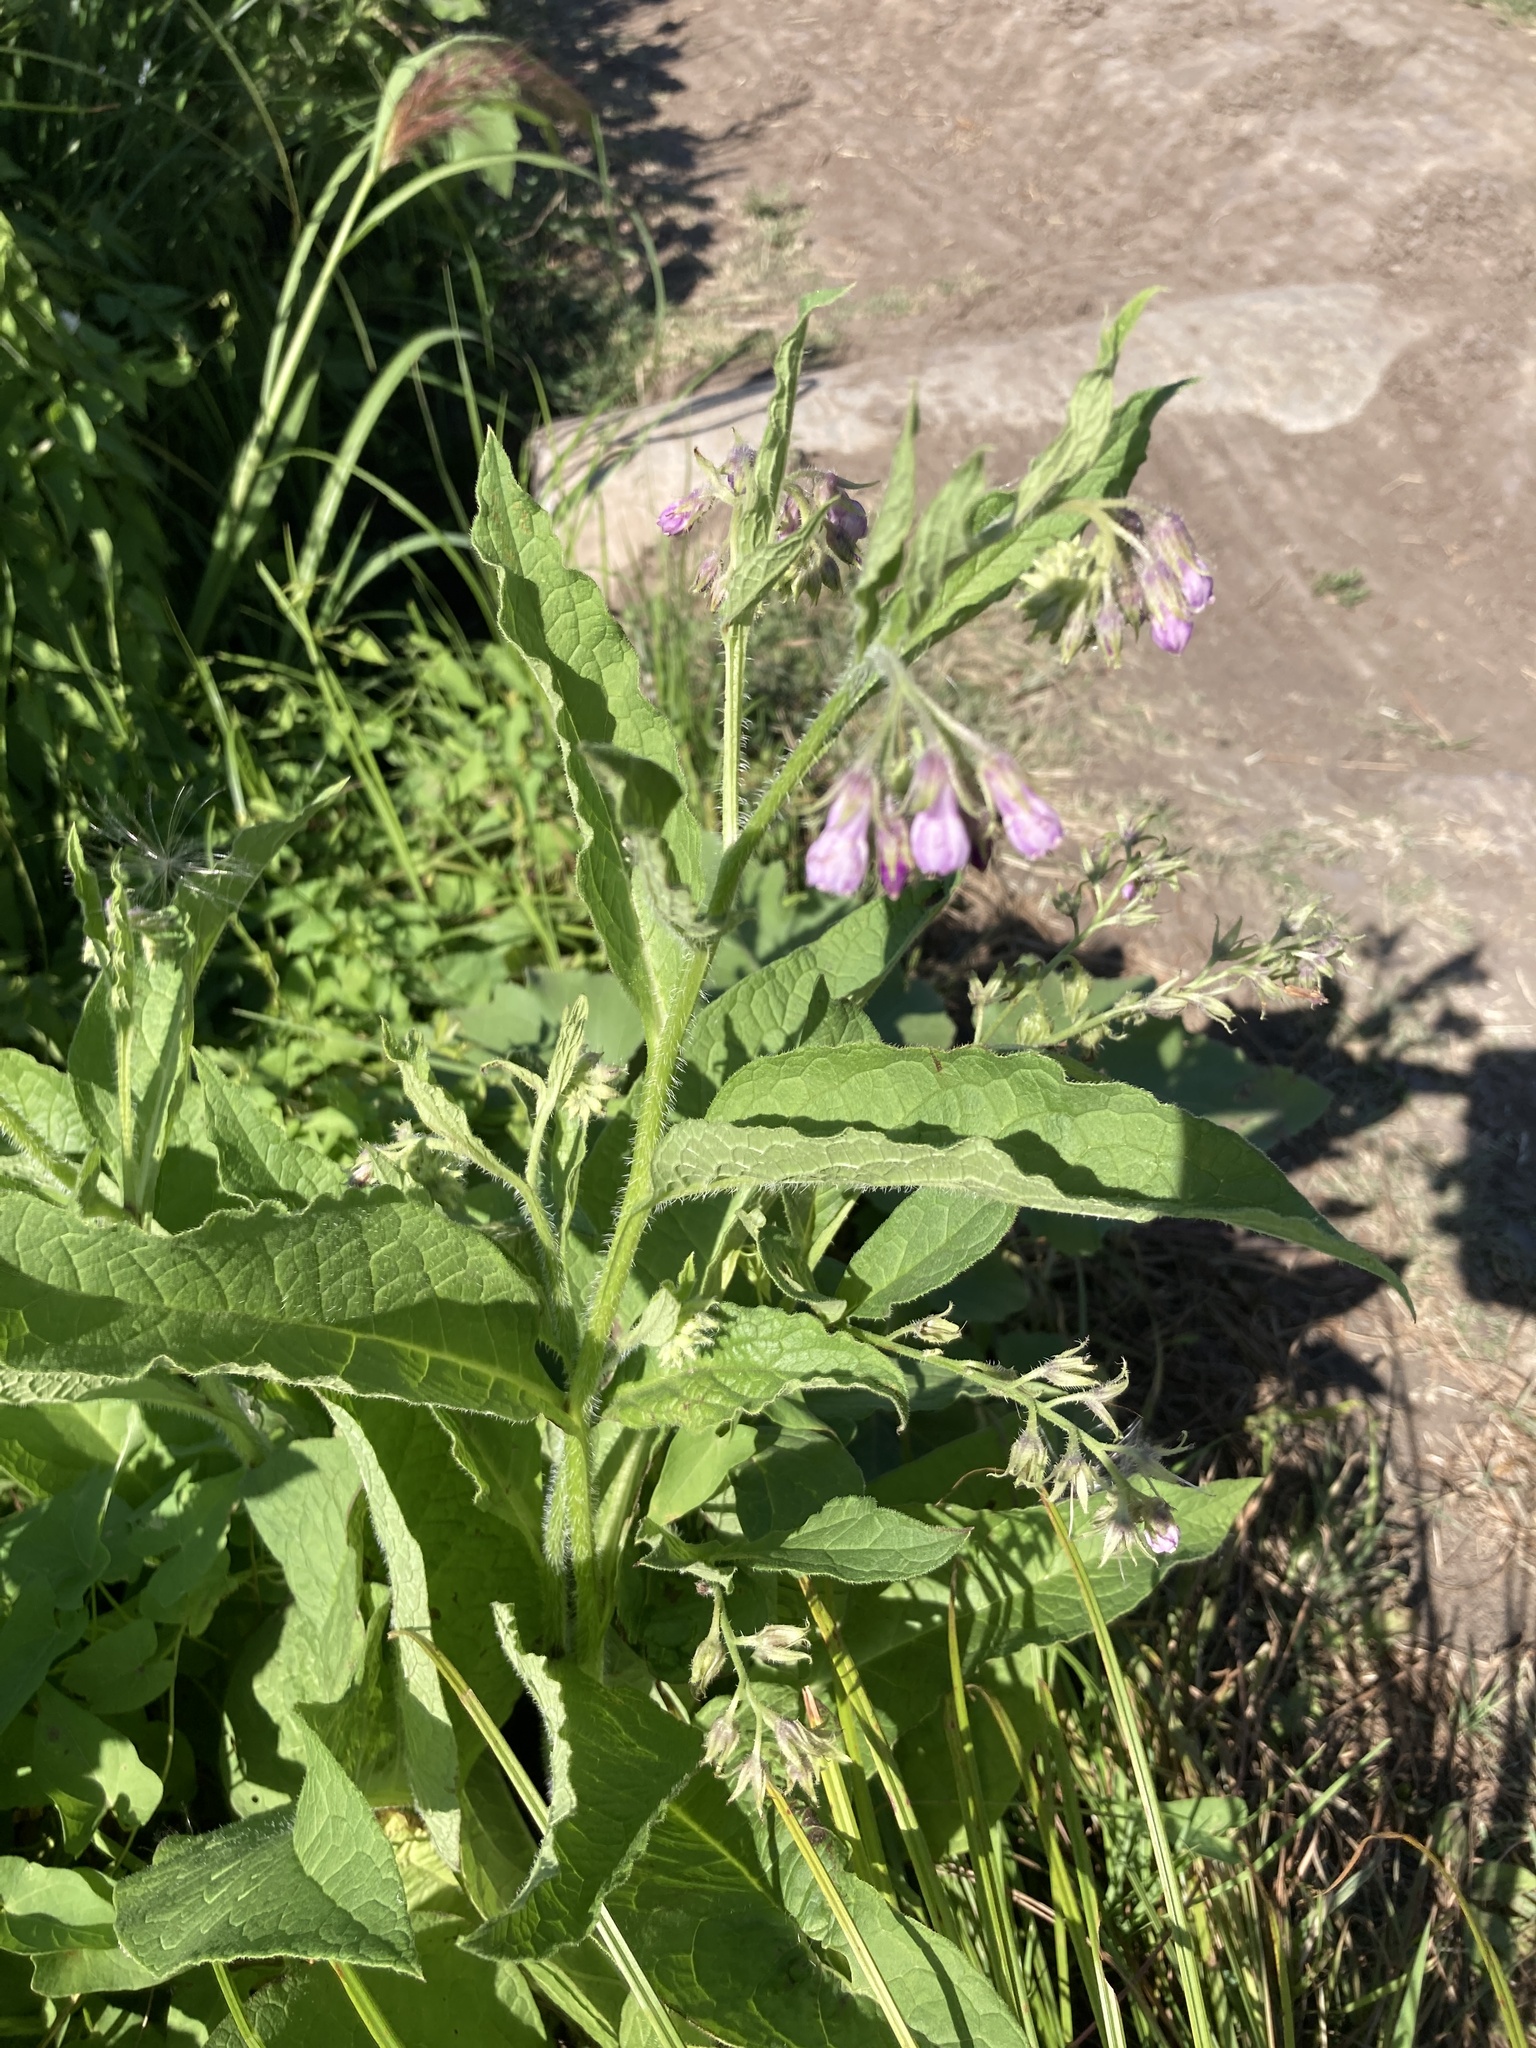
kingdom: Plantae
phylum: Tracheophyta
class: Magnoliopsida
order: Boraginales
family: Boraginaceae
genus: Symphytum
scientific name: Symphytum officinale
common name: Common comfrey
